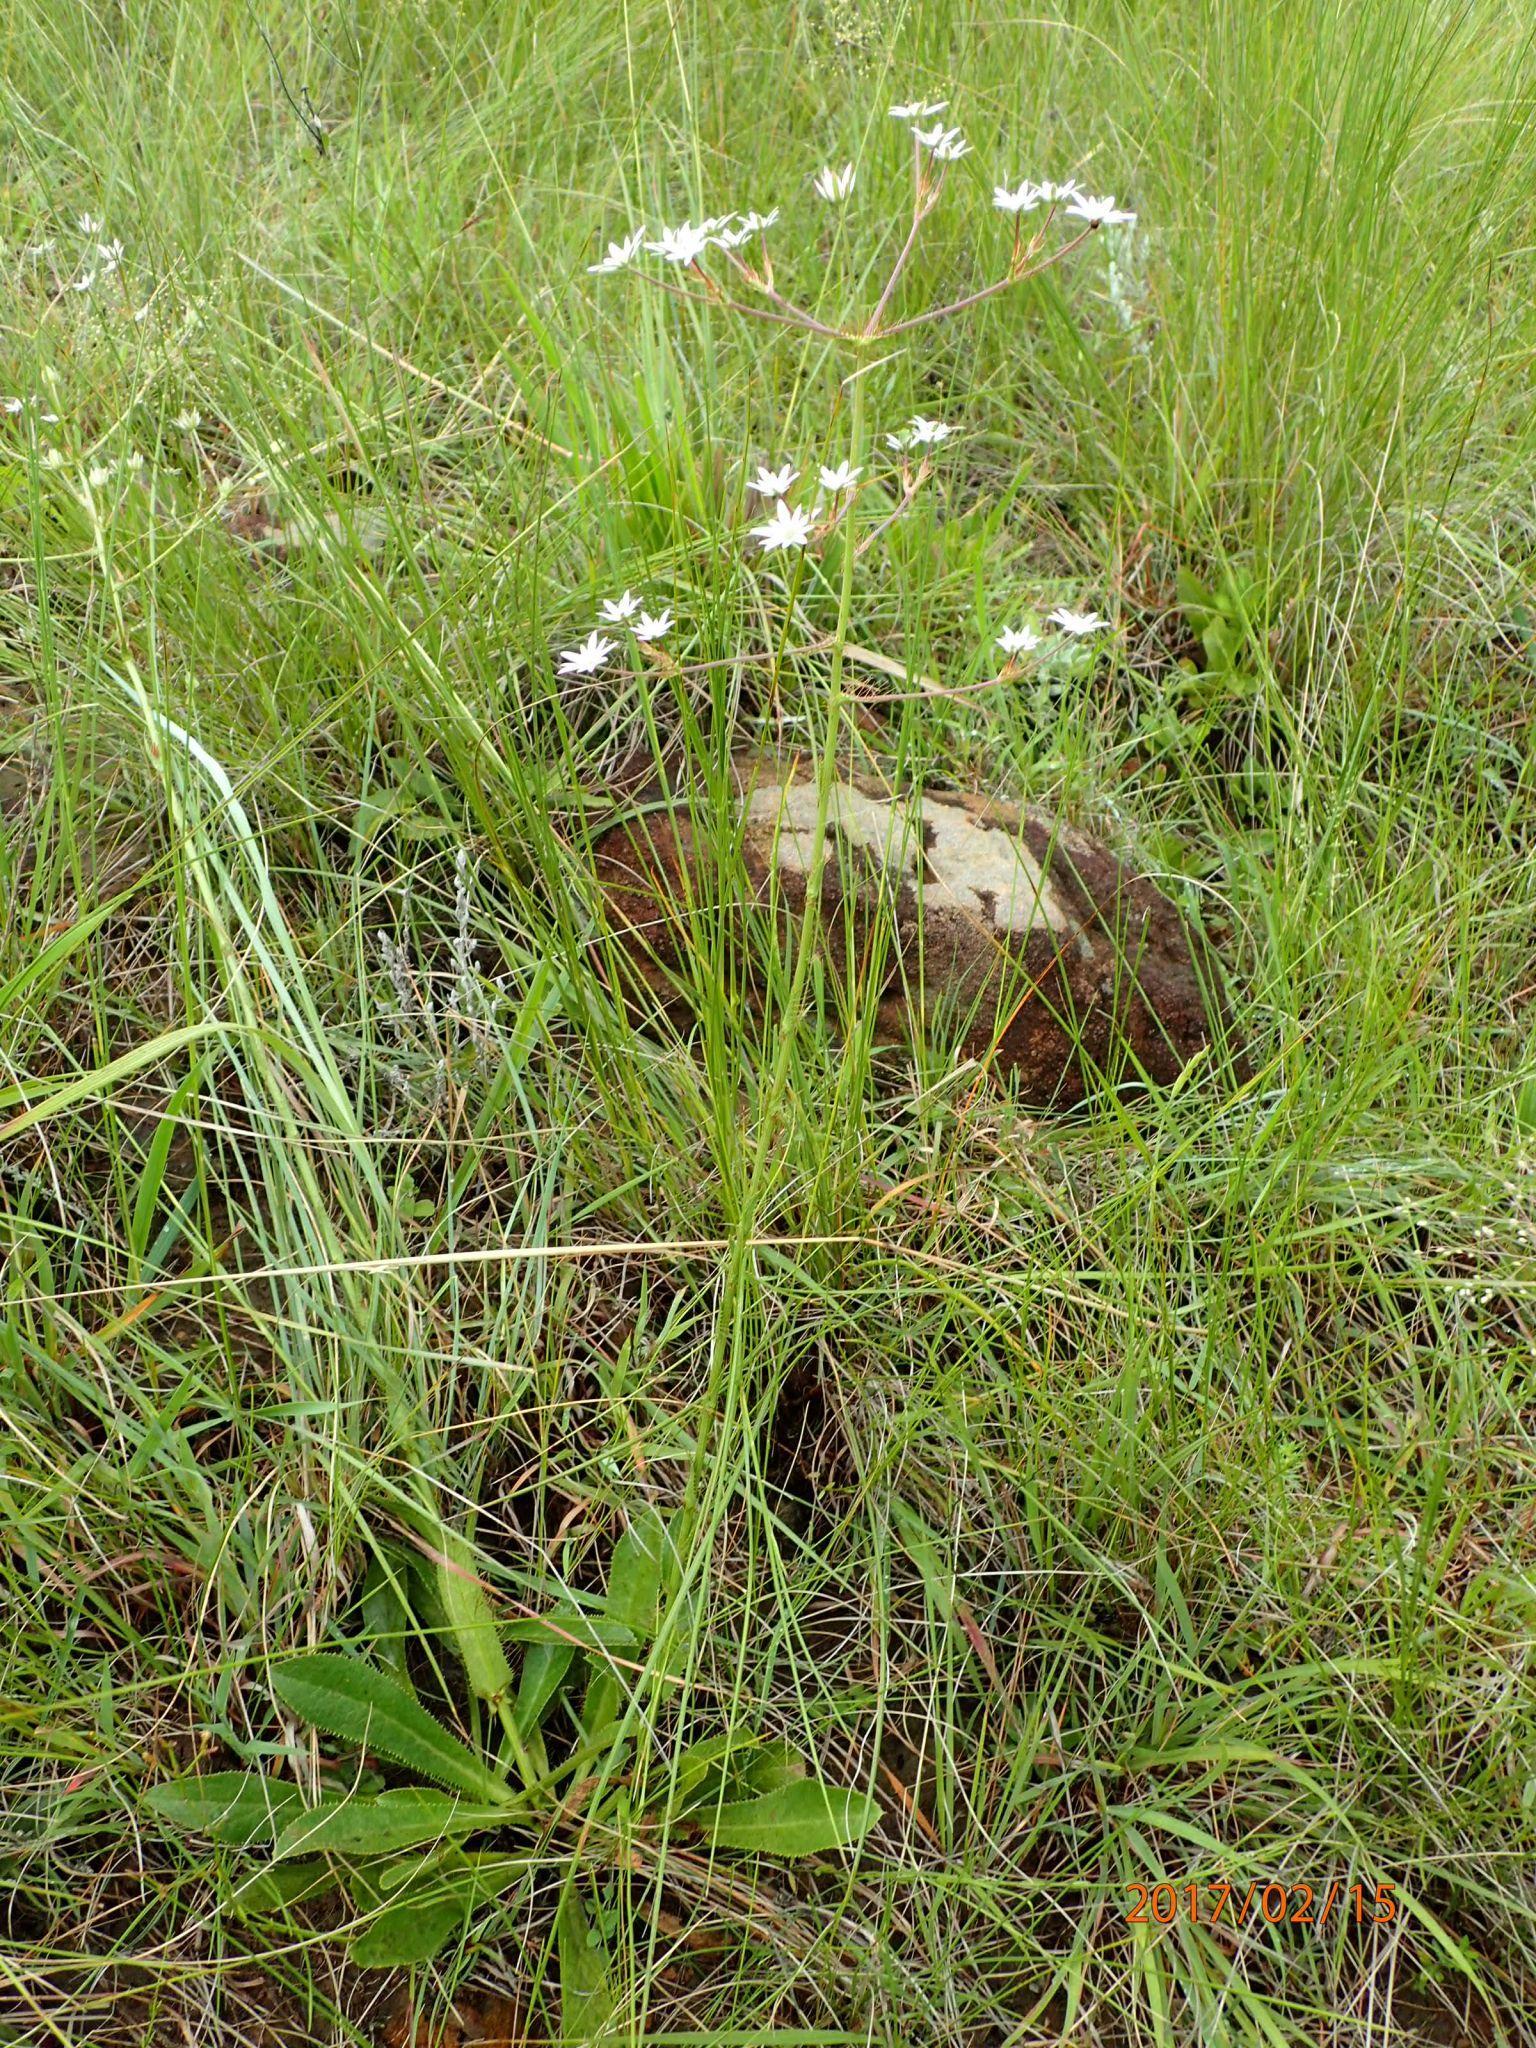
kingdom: Plantae
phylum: Tracheophyta
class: Magnoliopsida
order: Apiales
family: Apiaceae
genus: Alepidea
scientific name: Alepidea peduncularis
